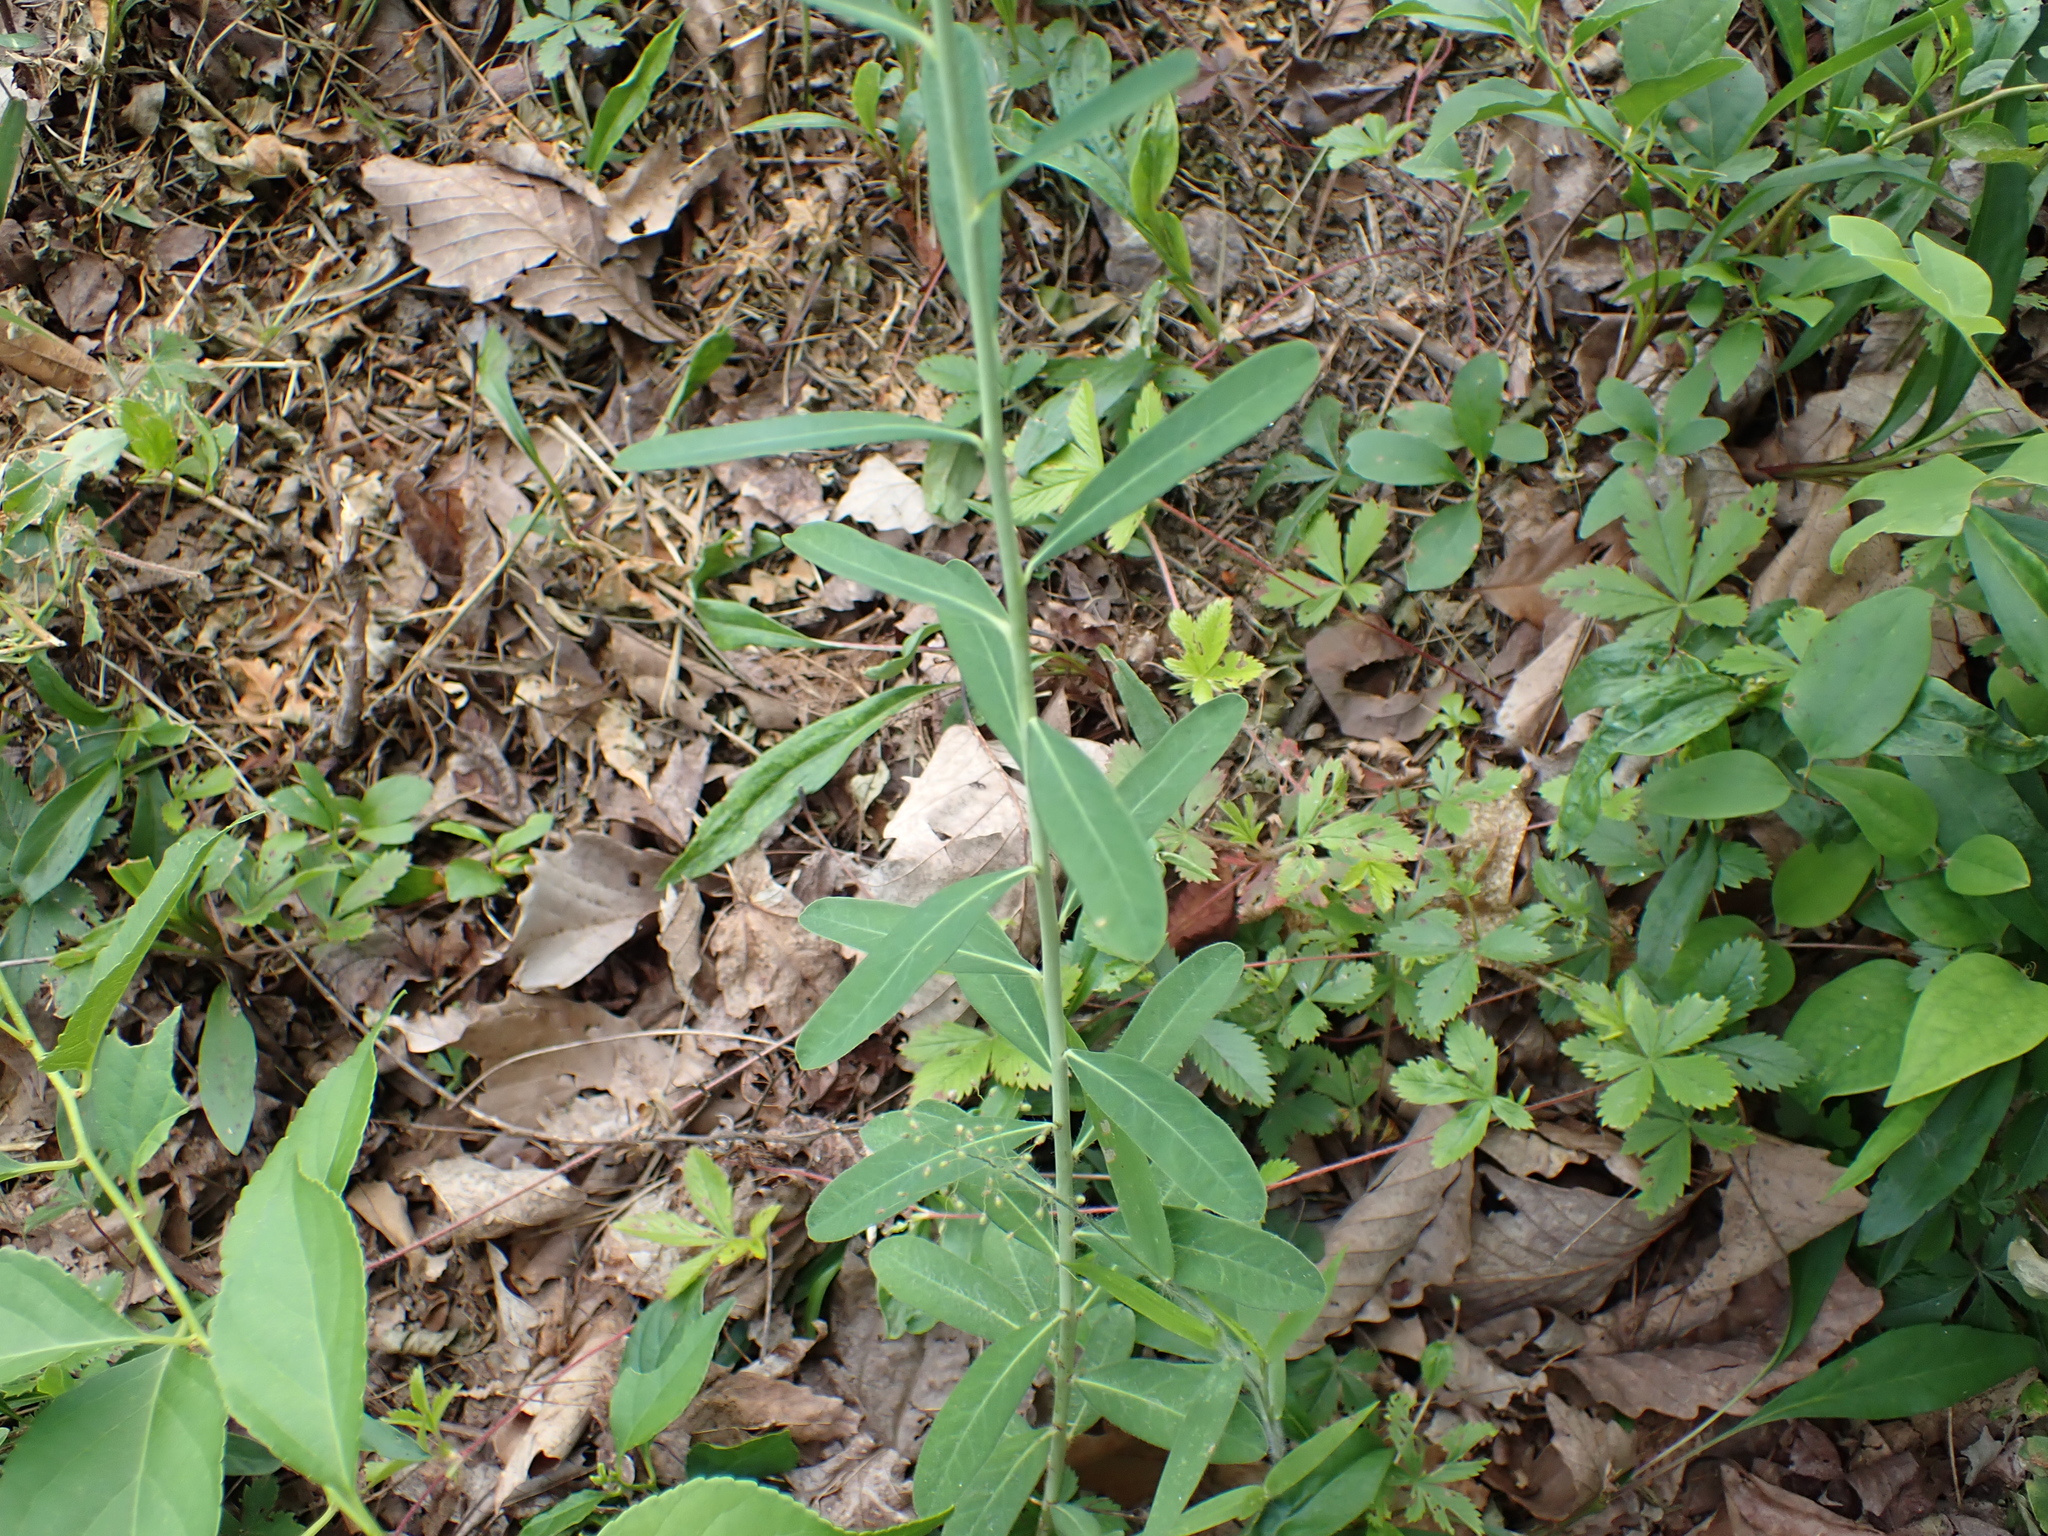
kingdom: Plantae
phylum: Tracheophyta
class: Magnoliopsida
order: Malpighiales
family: Euphorbiaceae
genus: Euphorbia
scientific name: Euphorbia corollata
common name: Flowering spurge
